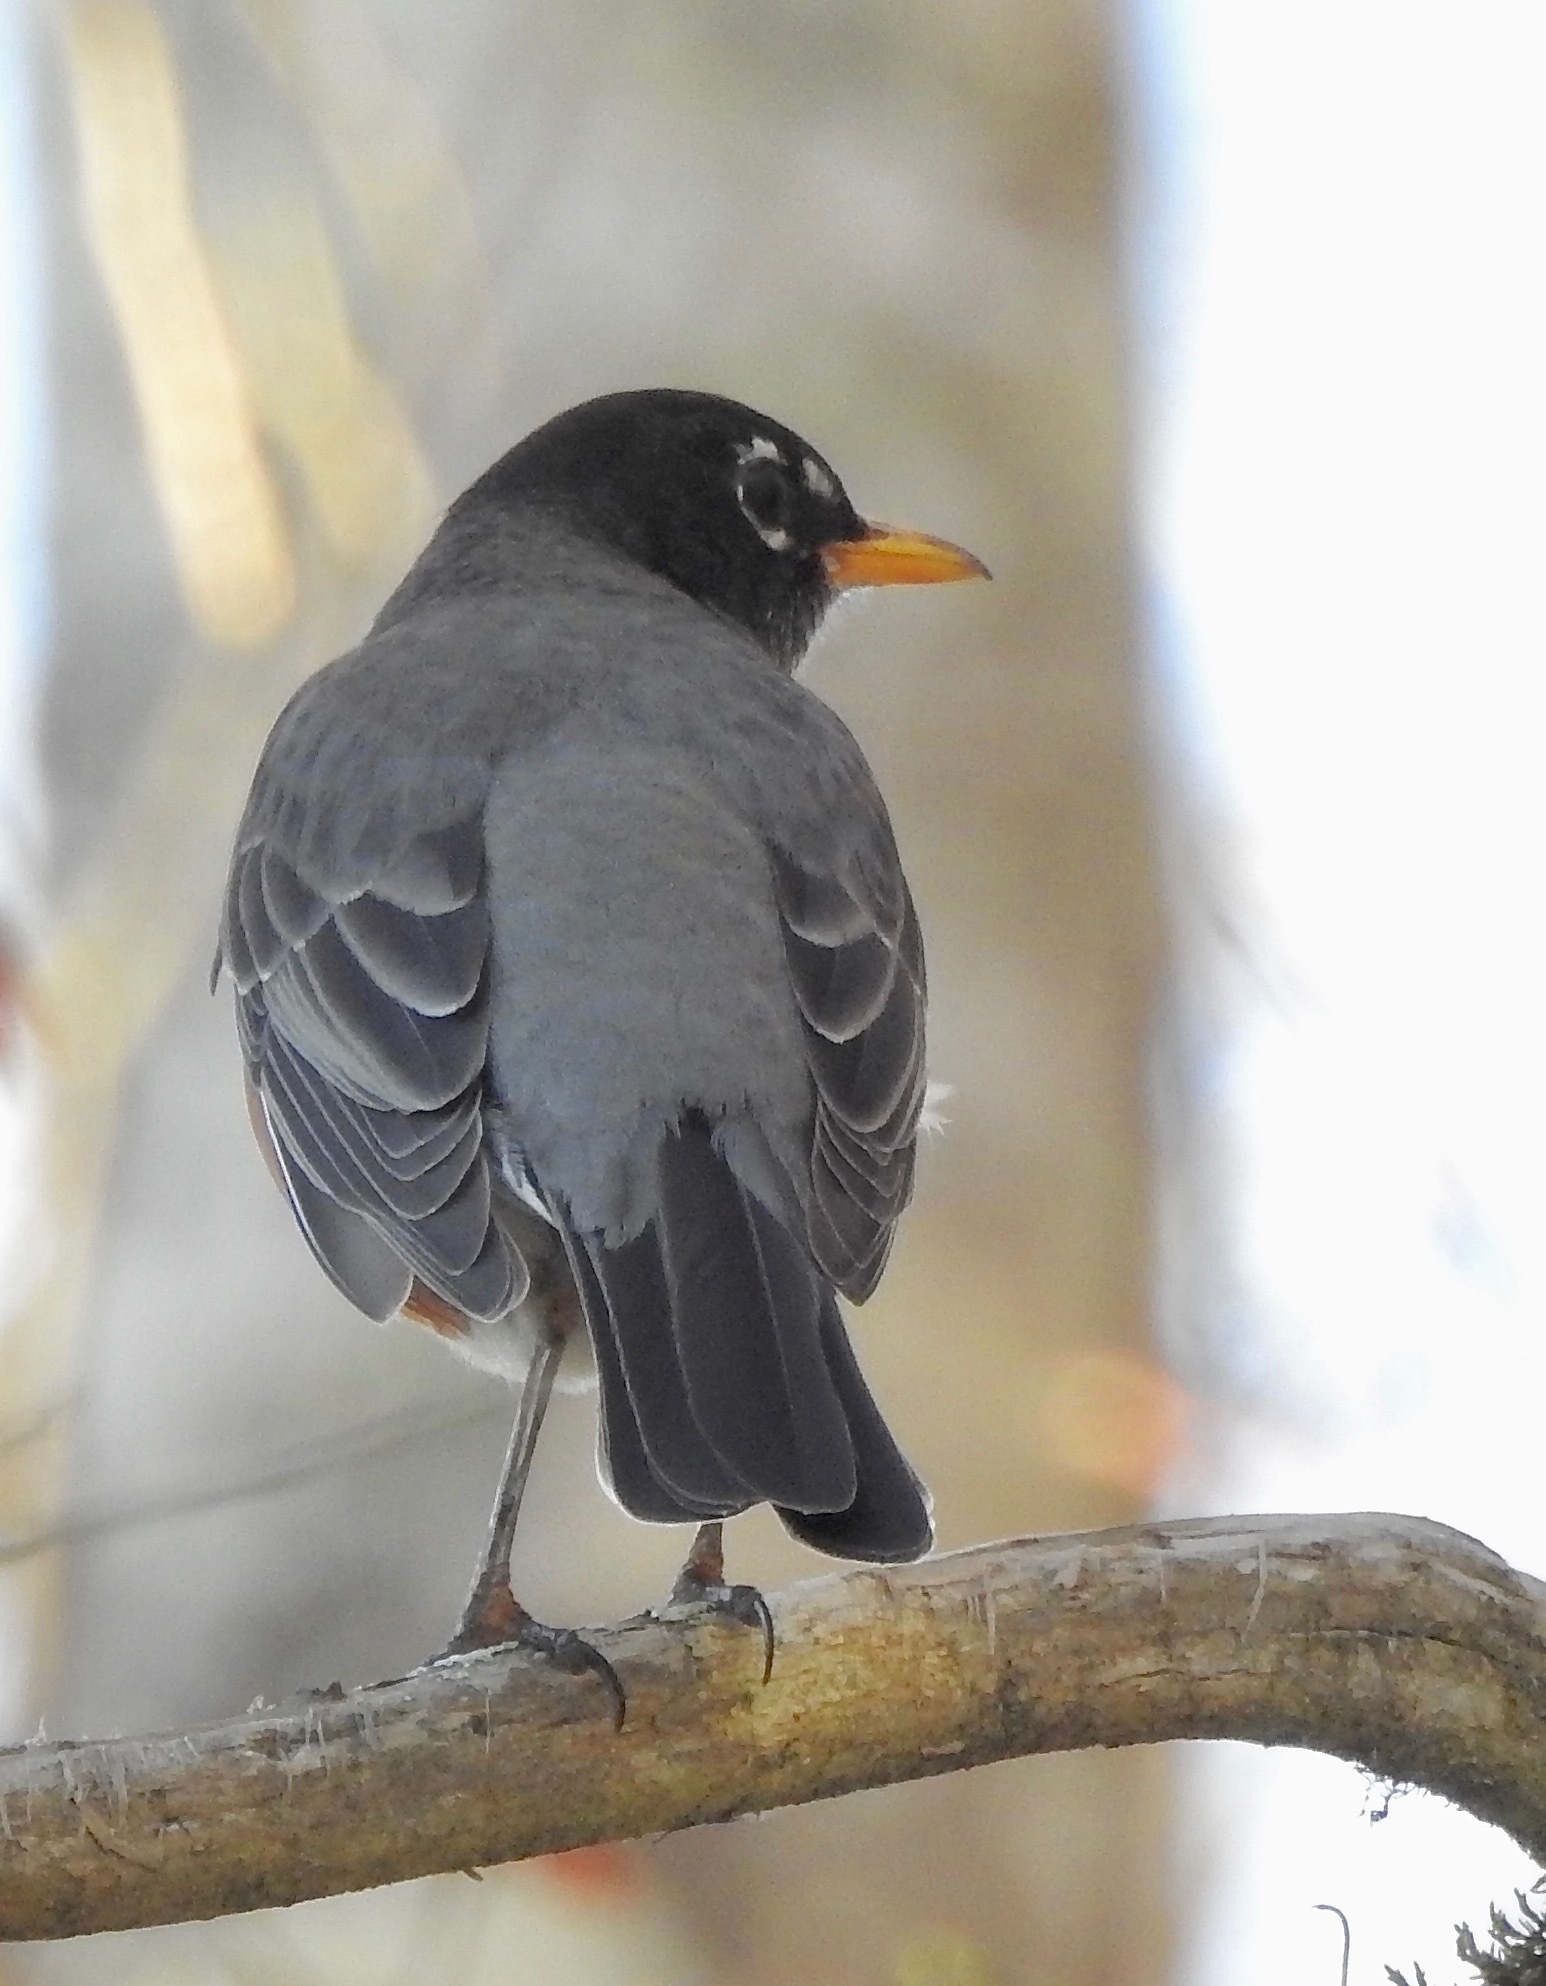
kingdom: Animalia
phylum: Chordata
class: Aves
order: Passeriformes
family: Turdidae
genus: Turdus
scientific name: Turdus migratorius
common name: American robin
